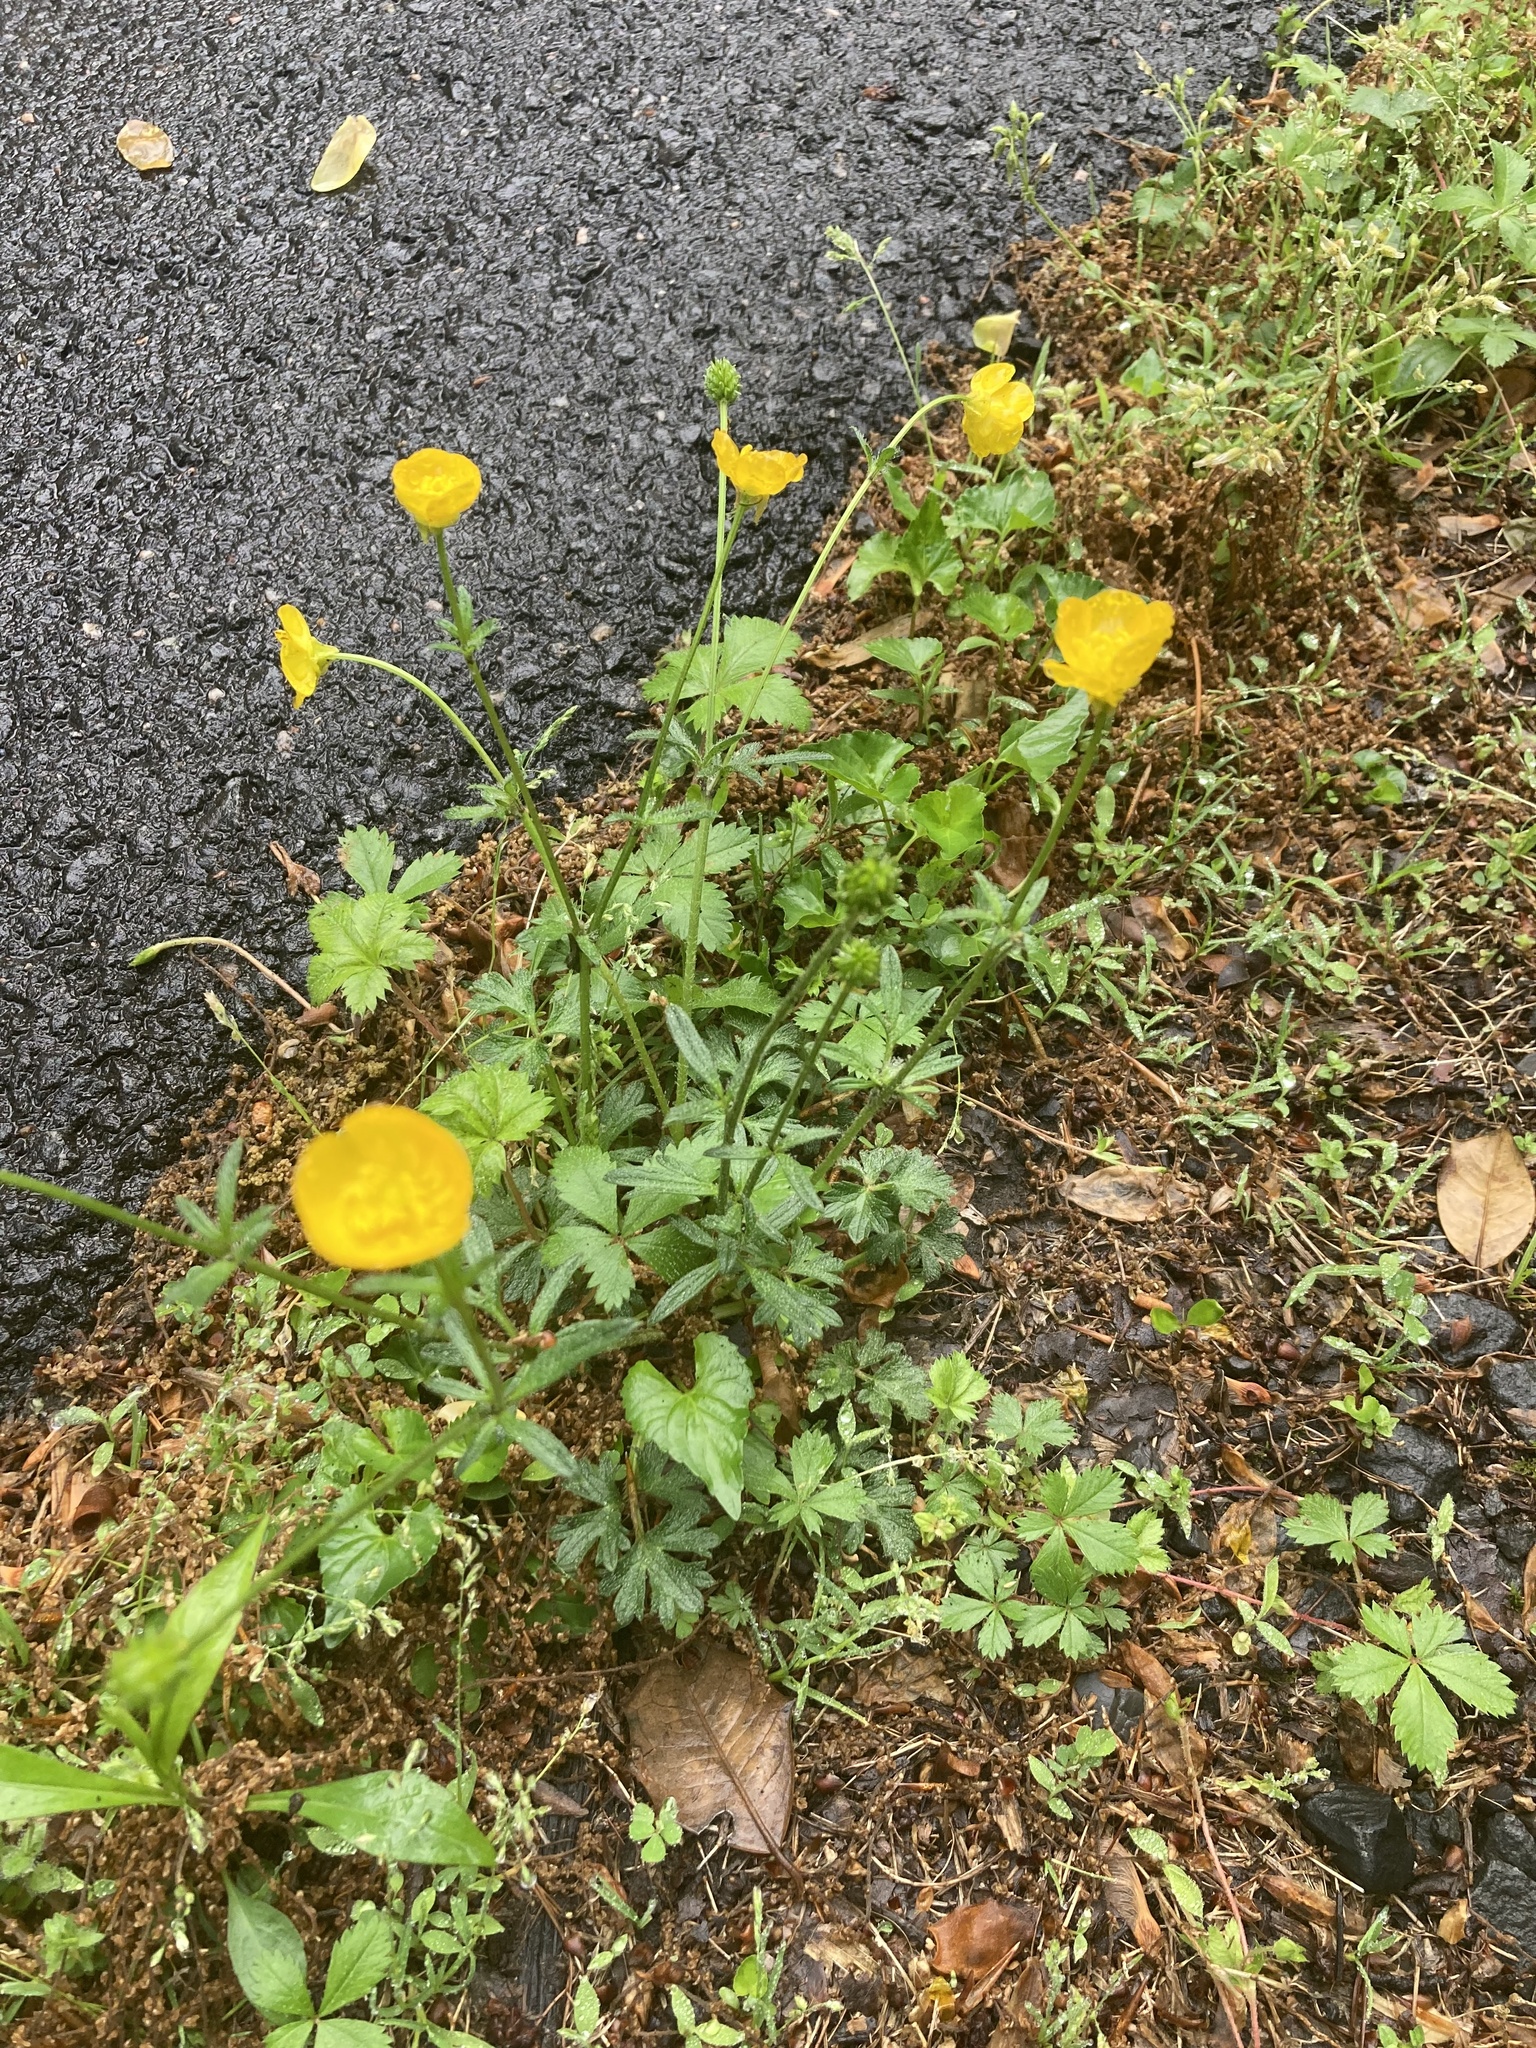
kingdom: Plantae
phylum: Tracheophyta
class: Magnoliopsida
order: Ranunculales
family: Ranunculaceae
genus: Ranunculus
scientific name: Ranunculus bulbosus
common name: Bulbous buttercup
